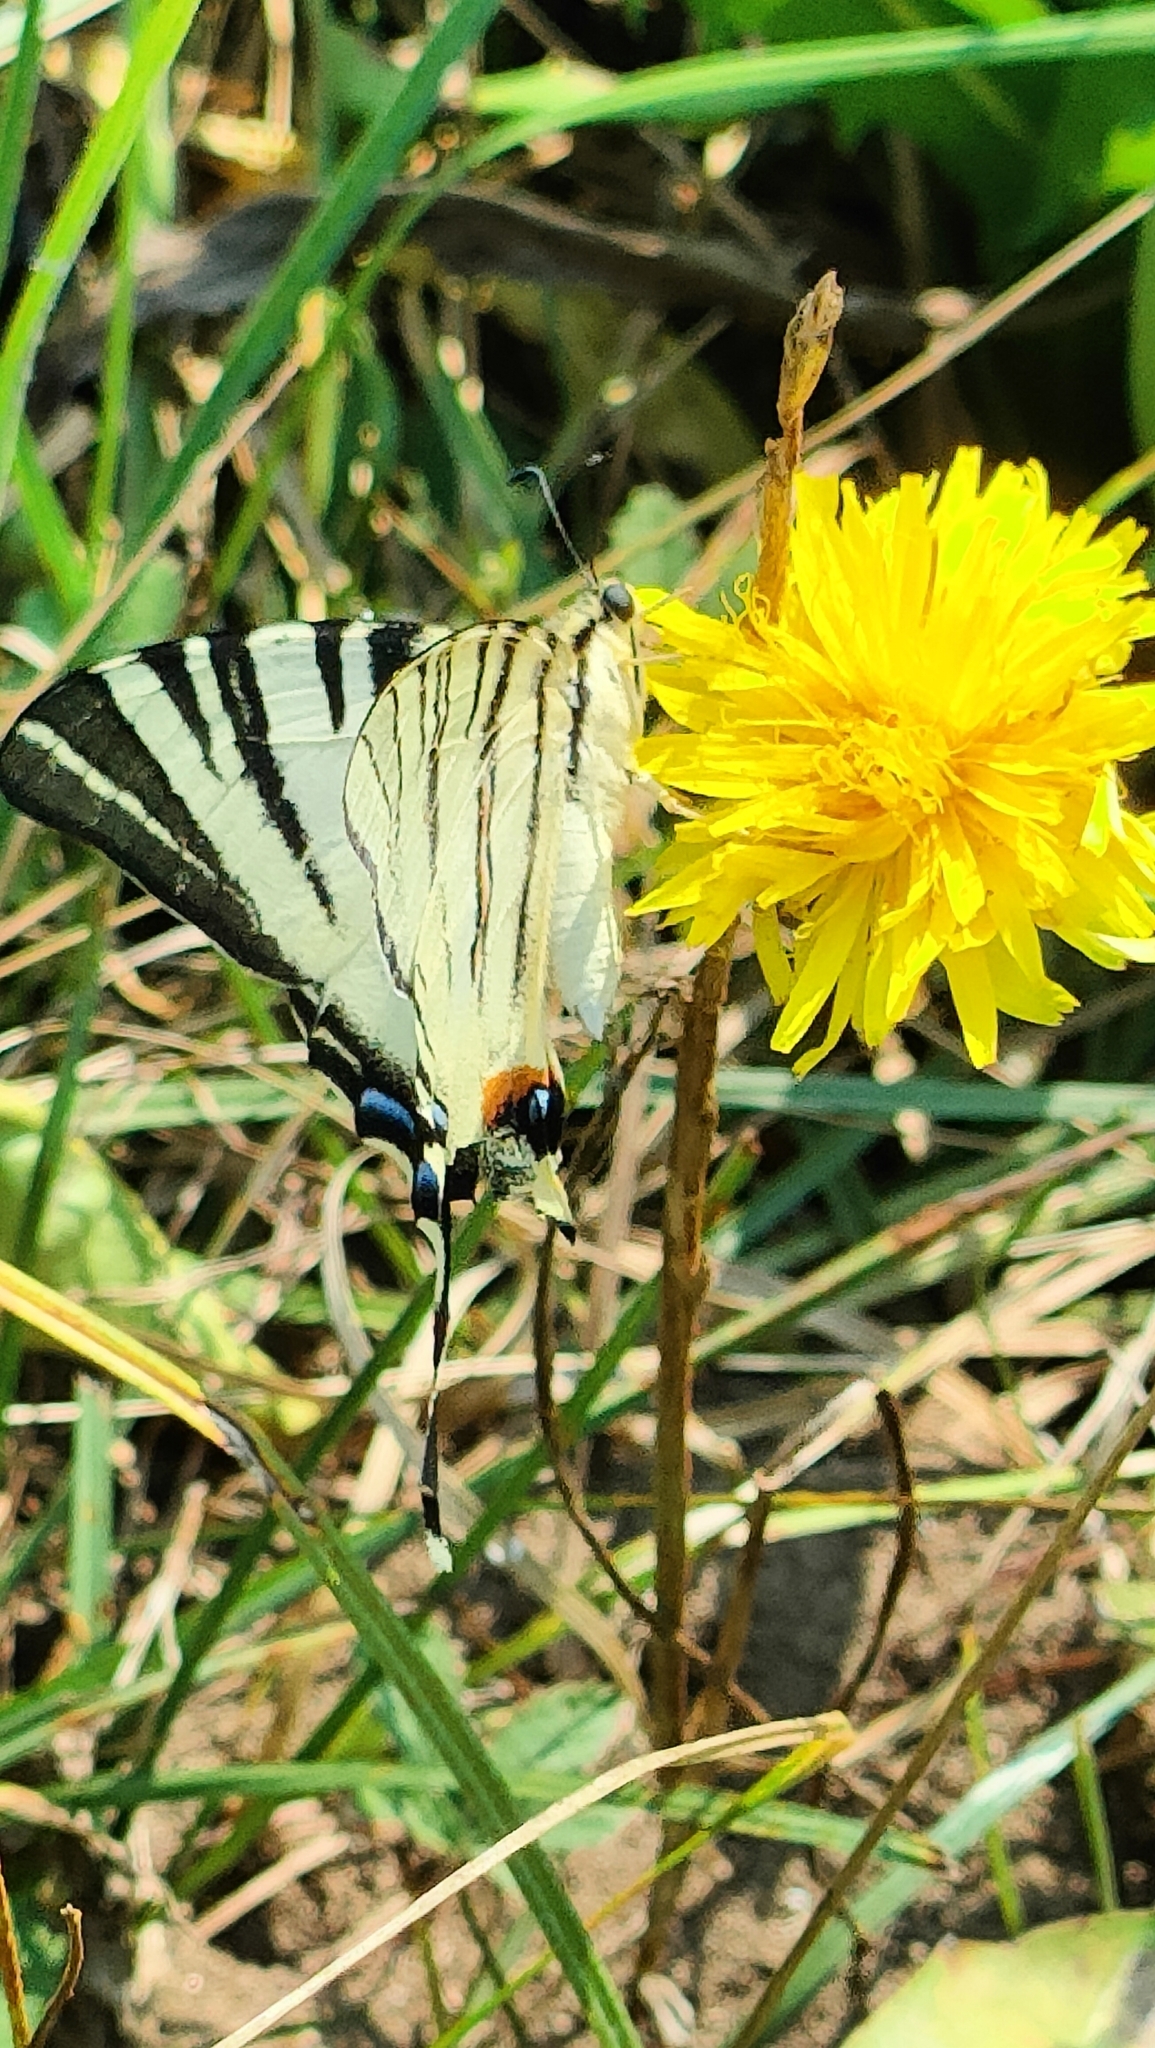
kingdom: Animalia
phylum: Arthropoda
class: Insecta
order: Lepidoptera
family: Papilionidae
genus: Iphiclides
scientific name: Iphiclides podalirius
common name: Scarce swallowtail
